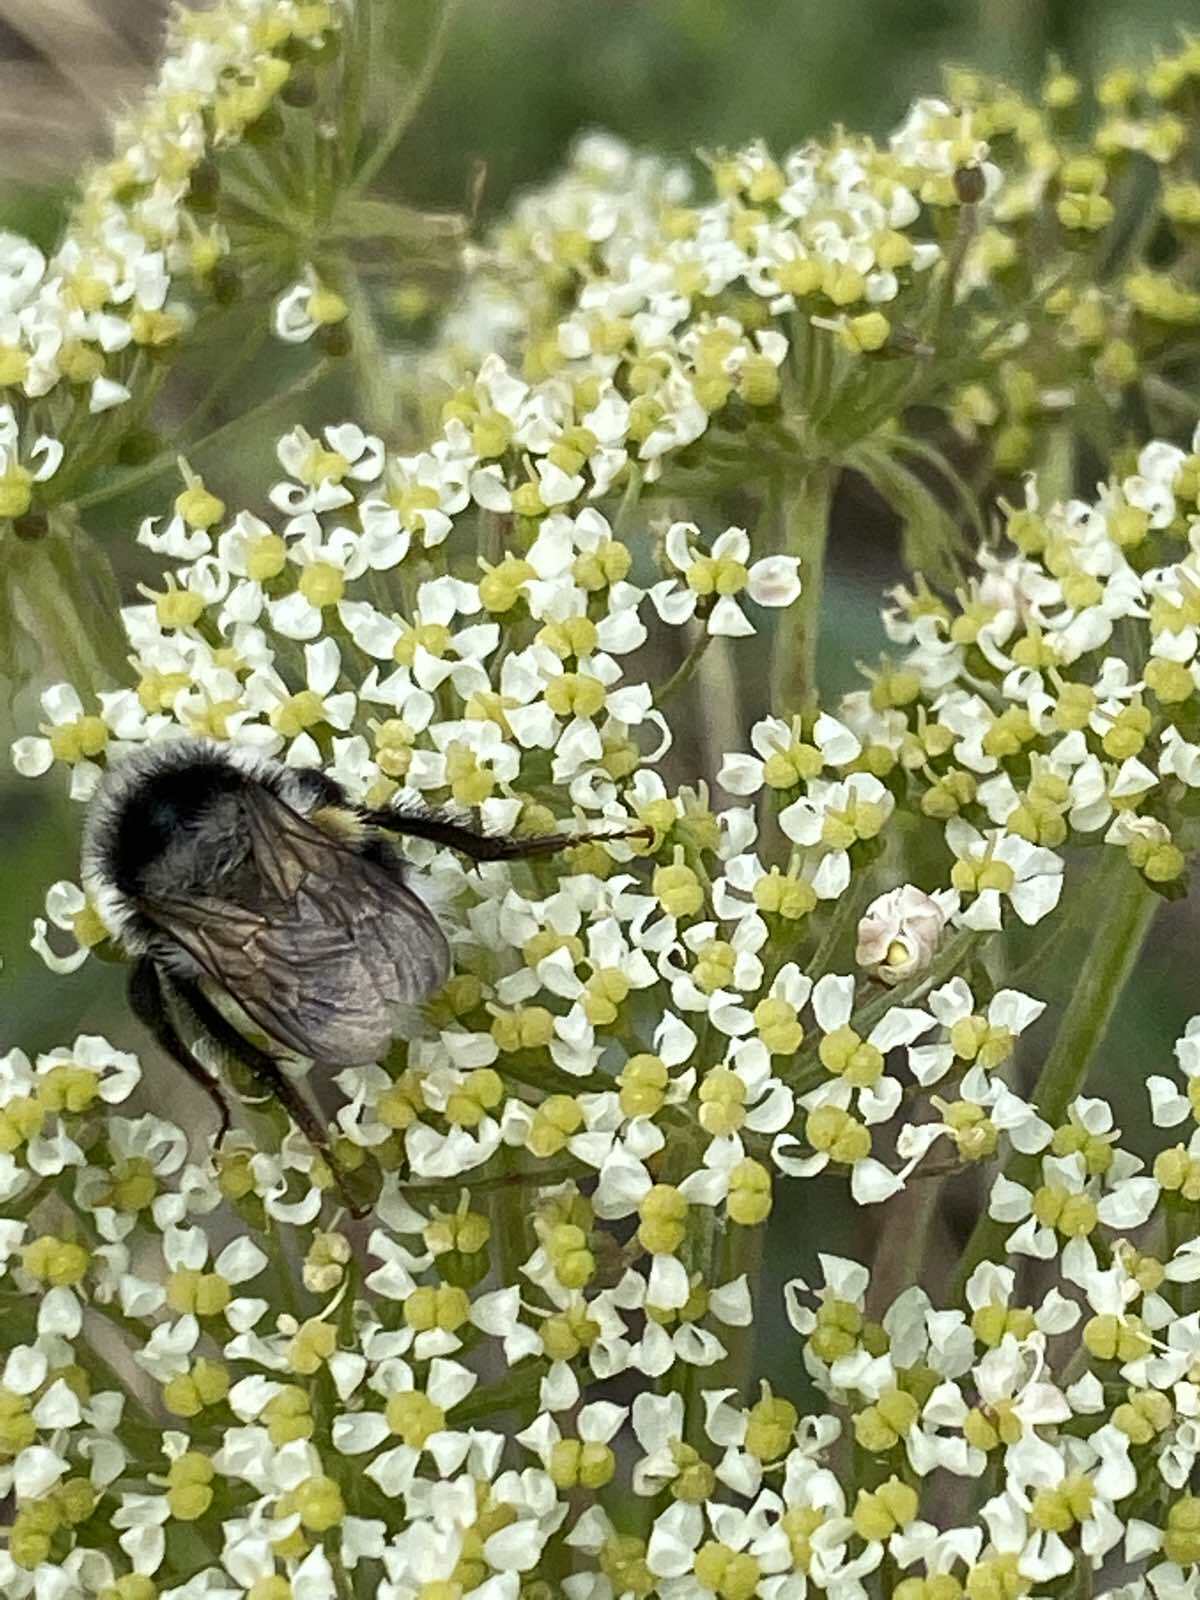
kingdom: Animalia
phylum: Arthropoda
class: Insecta
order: Hymenoptera
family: Apidae
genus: Bombus
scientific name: Bombus patagiatus
